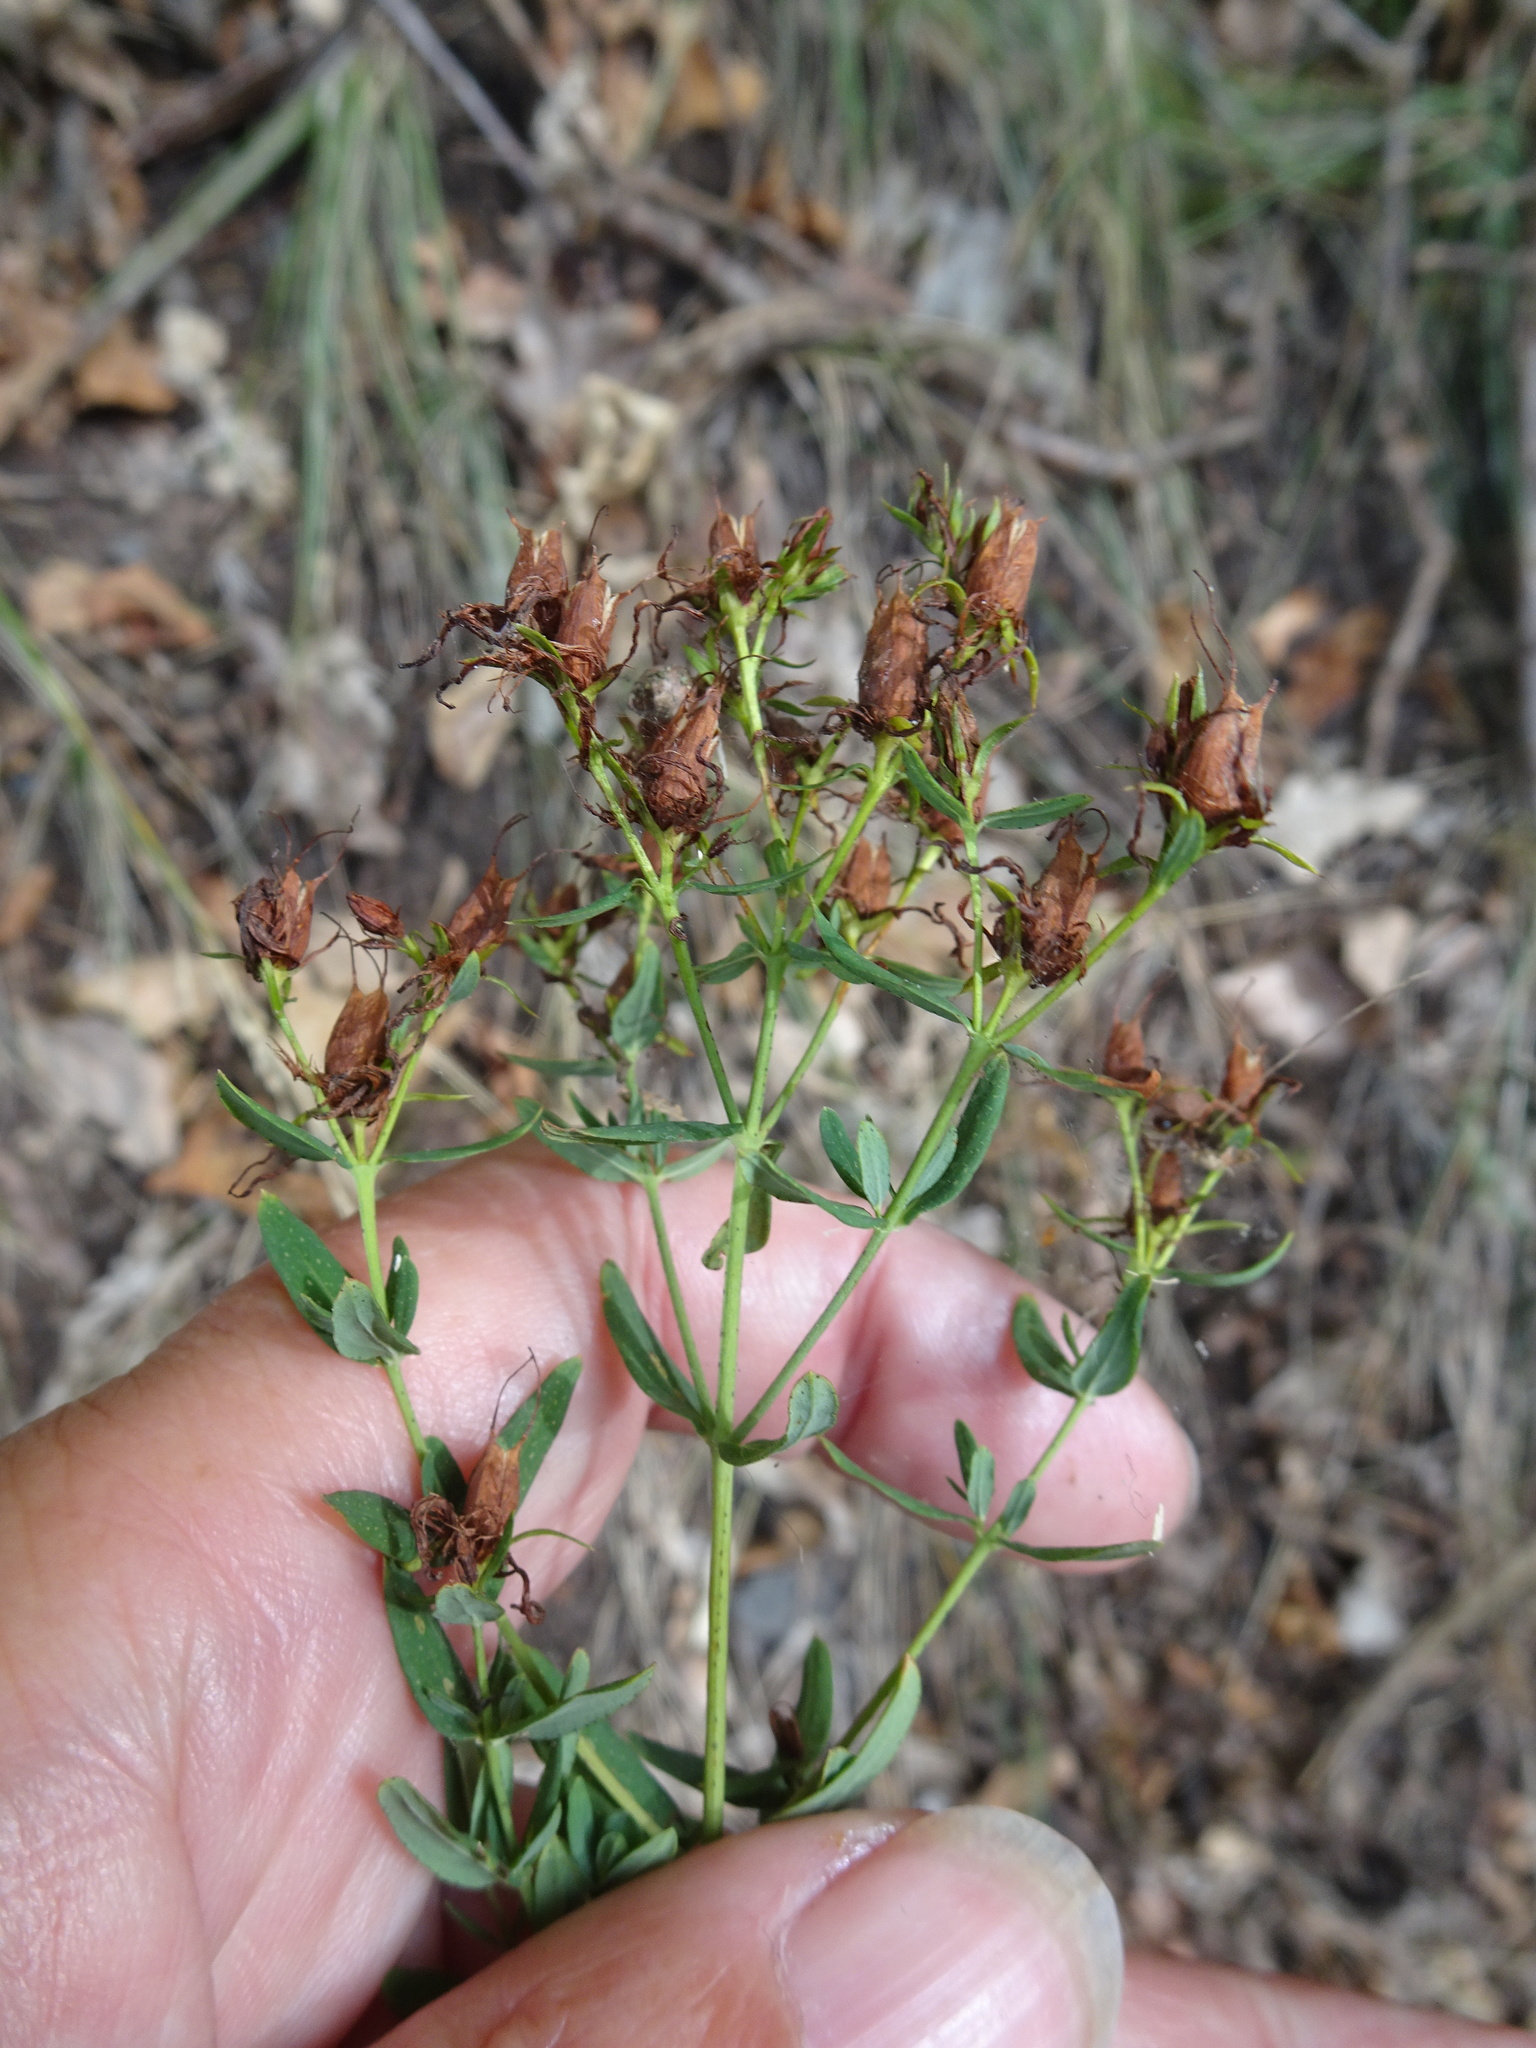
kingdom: Plantae
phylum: Tracheophyta
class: Magnoliopsida
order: Malpighiales
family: Hypericaceae
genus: Hypericum
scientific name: Hypericum perforatum
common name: Common st. johnswort
